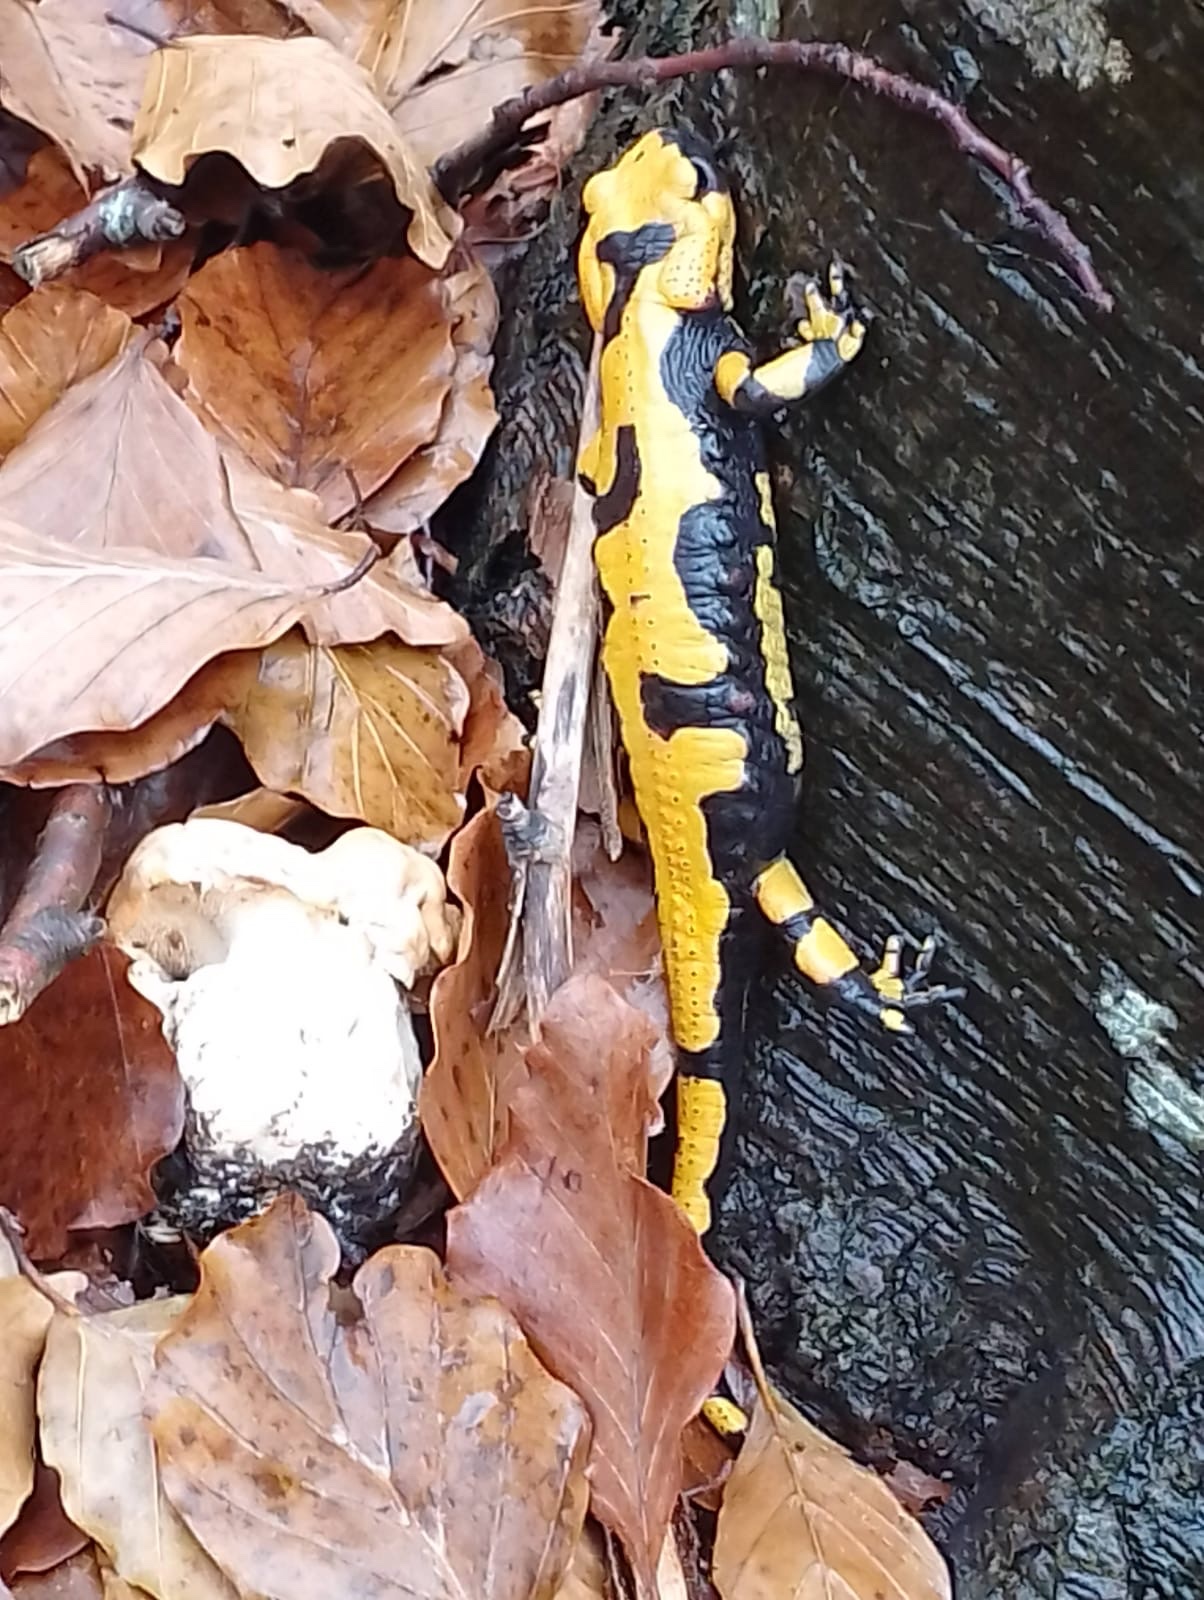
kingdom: Animalia
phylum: Chordata
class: Amphibia
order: Caudata
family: Salamandridae
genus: Salamandra
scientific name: Salamandra salamandra
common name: Fire salamander
